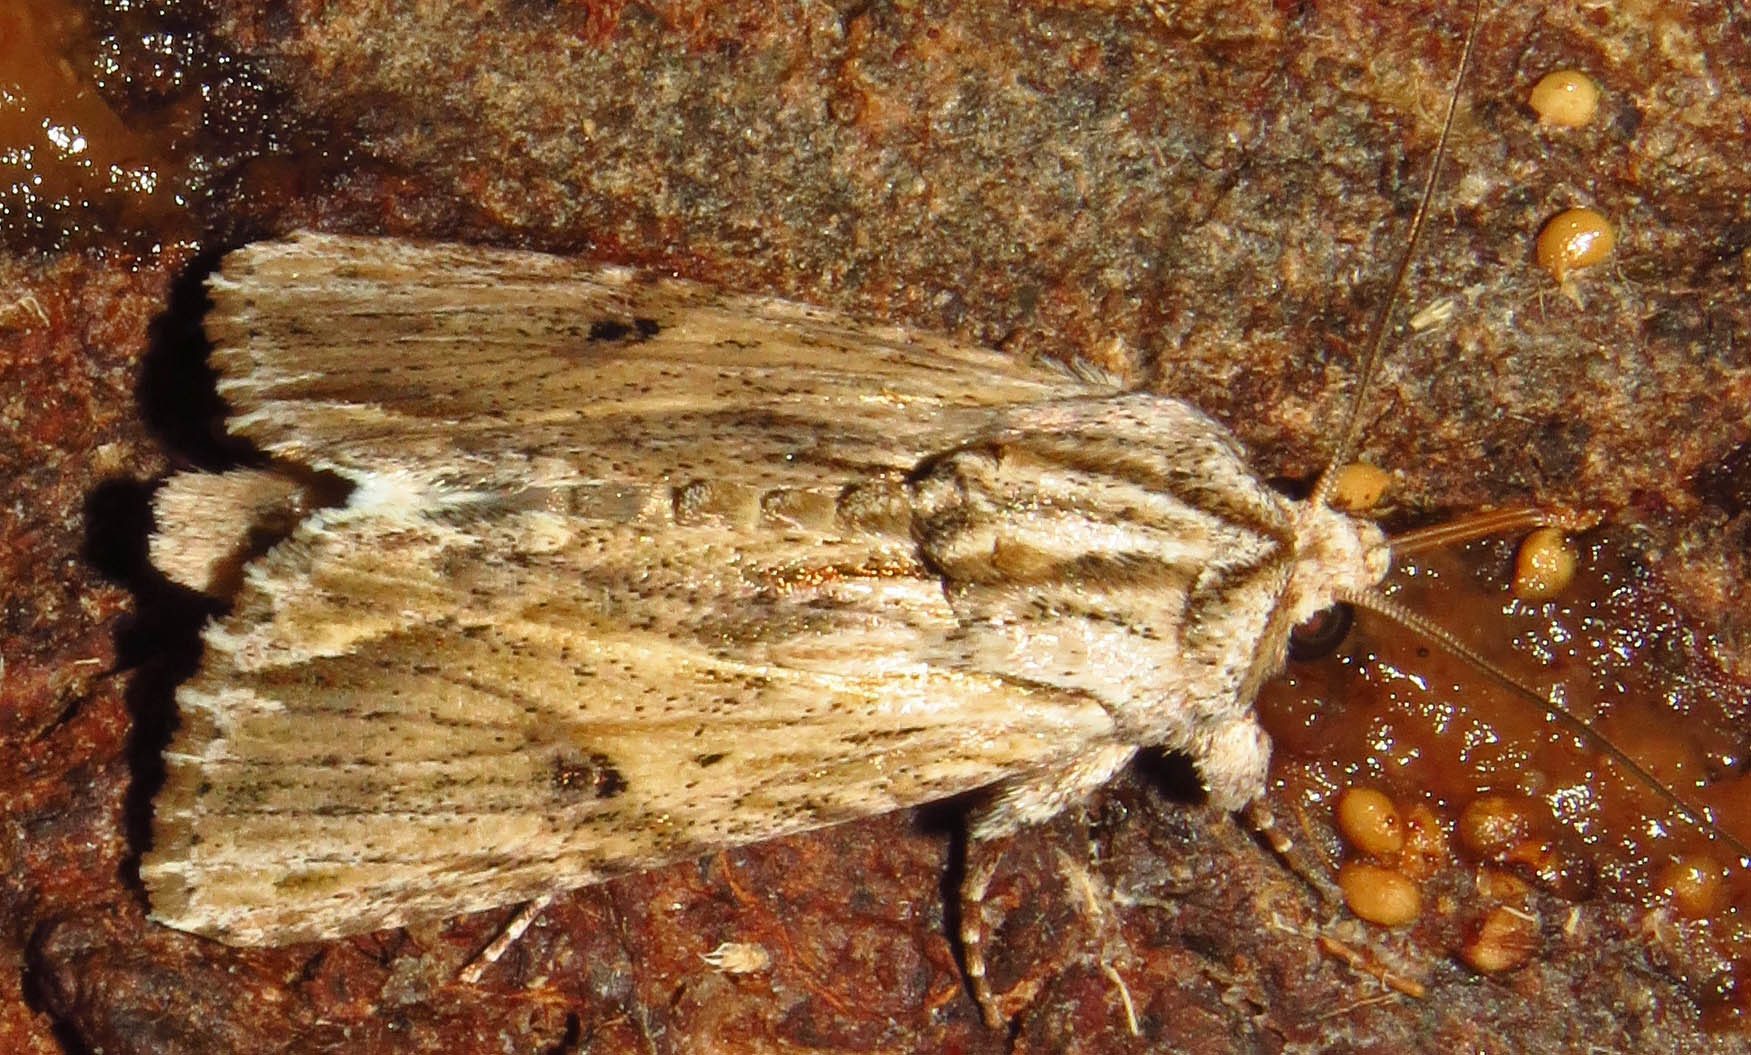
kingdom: Animalia
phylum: Arthropoda
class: Insecta
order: Lepidoptera
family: Noctuidae
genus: Spodoptera
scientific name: Spodoptera eridania
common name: Southern army worm
